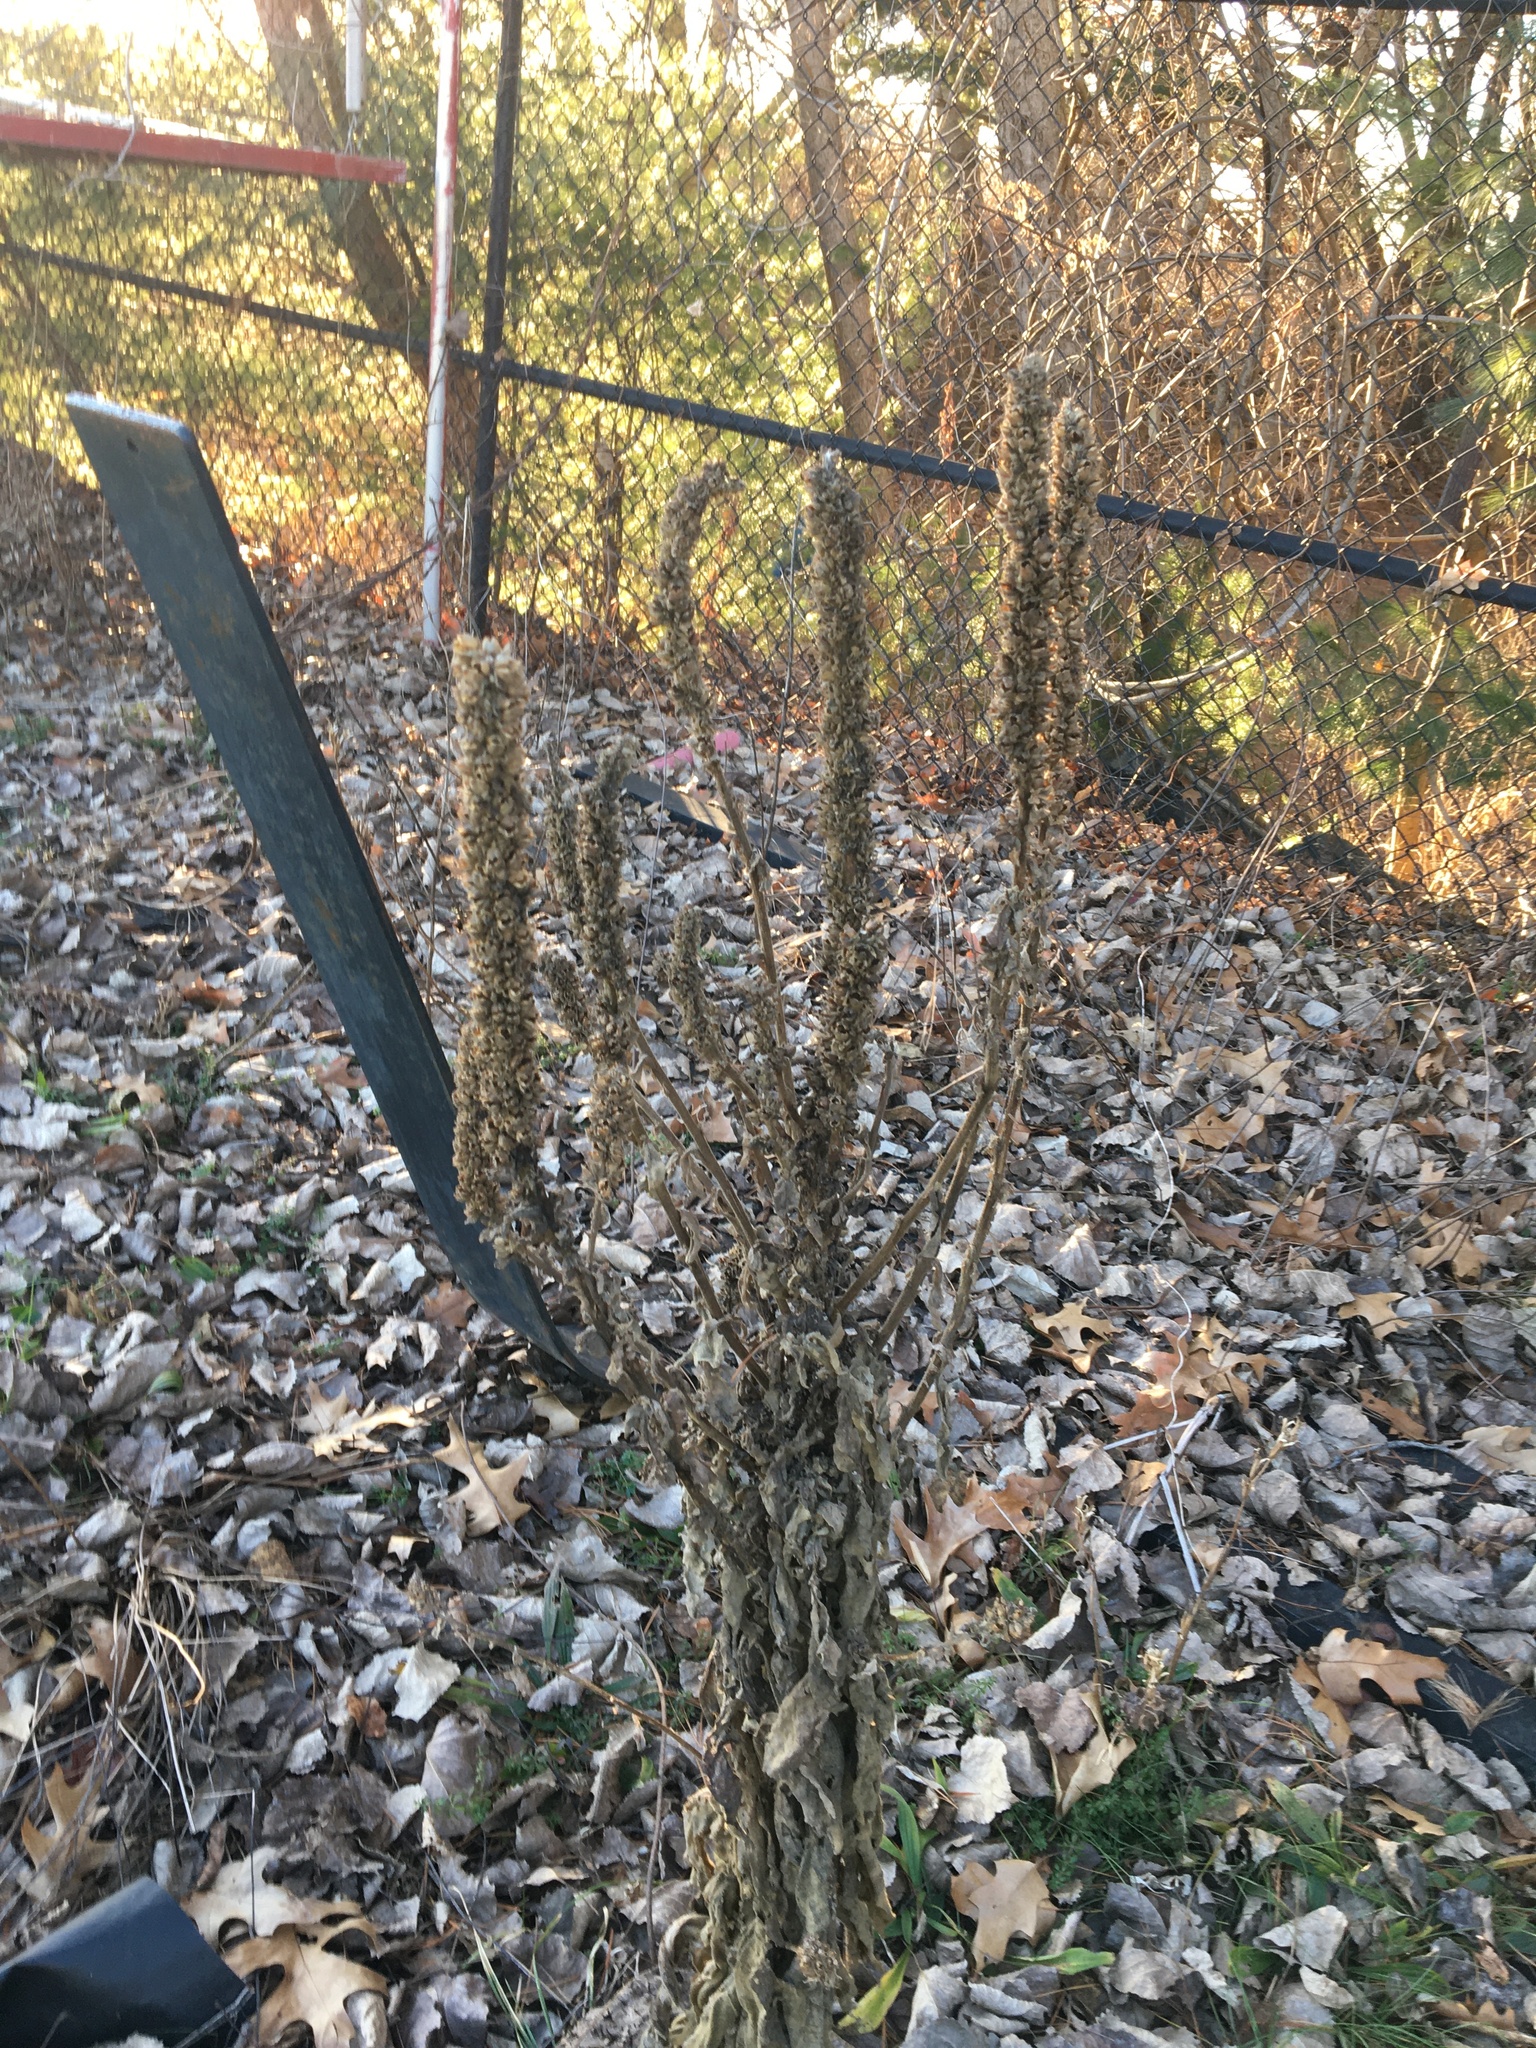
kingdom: Plantae
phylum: Tracheophyta
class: Magnoliopsida
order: Lamiales
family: Scrophulariaceae
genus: Verbascum
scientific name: Verbascum thapsus
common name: Common mullein
